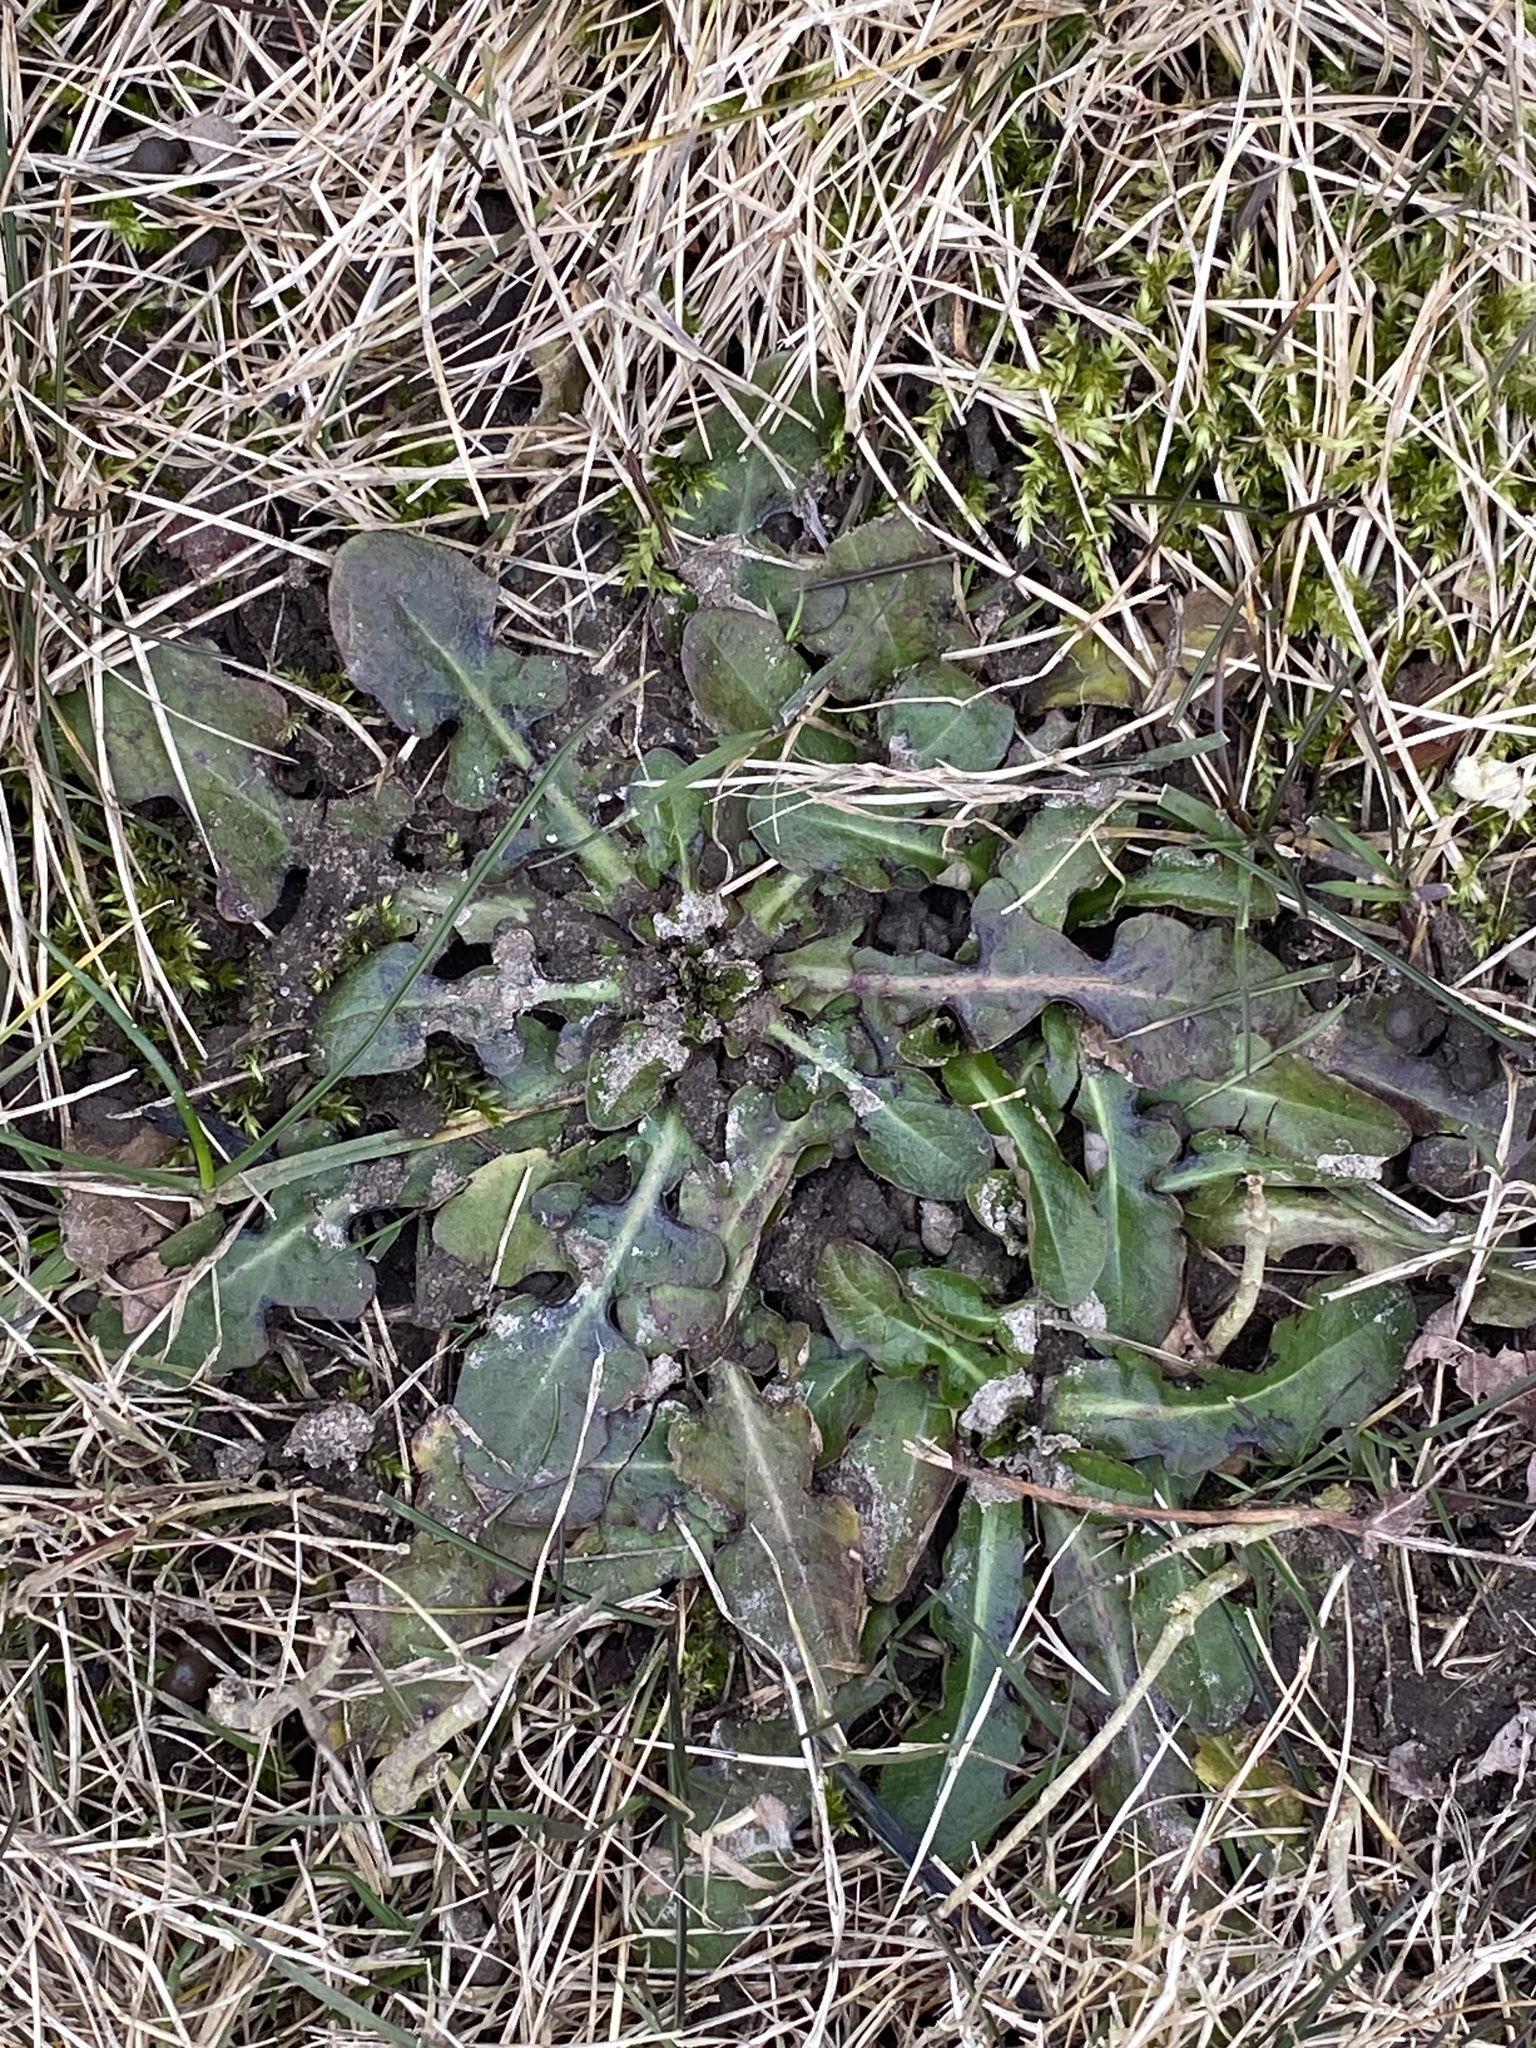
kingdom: Plantae
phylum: Tracheophyta
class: Magnoliopsida
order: Asterales
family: Asteraceae
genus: Hypochaeris
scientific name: Hypochaeris radicata
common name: Flatweed
